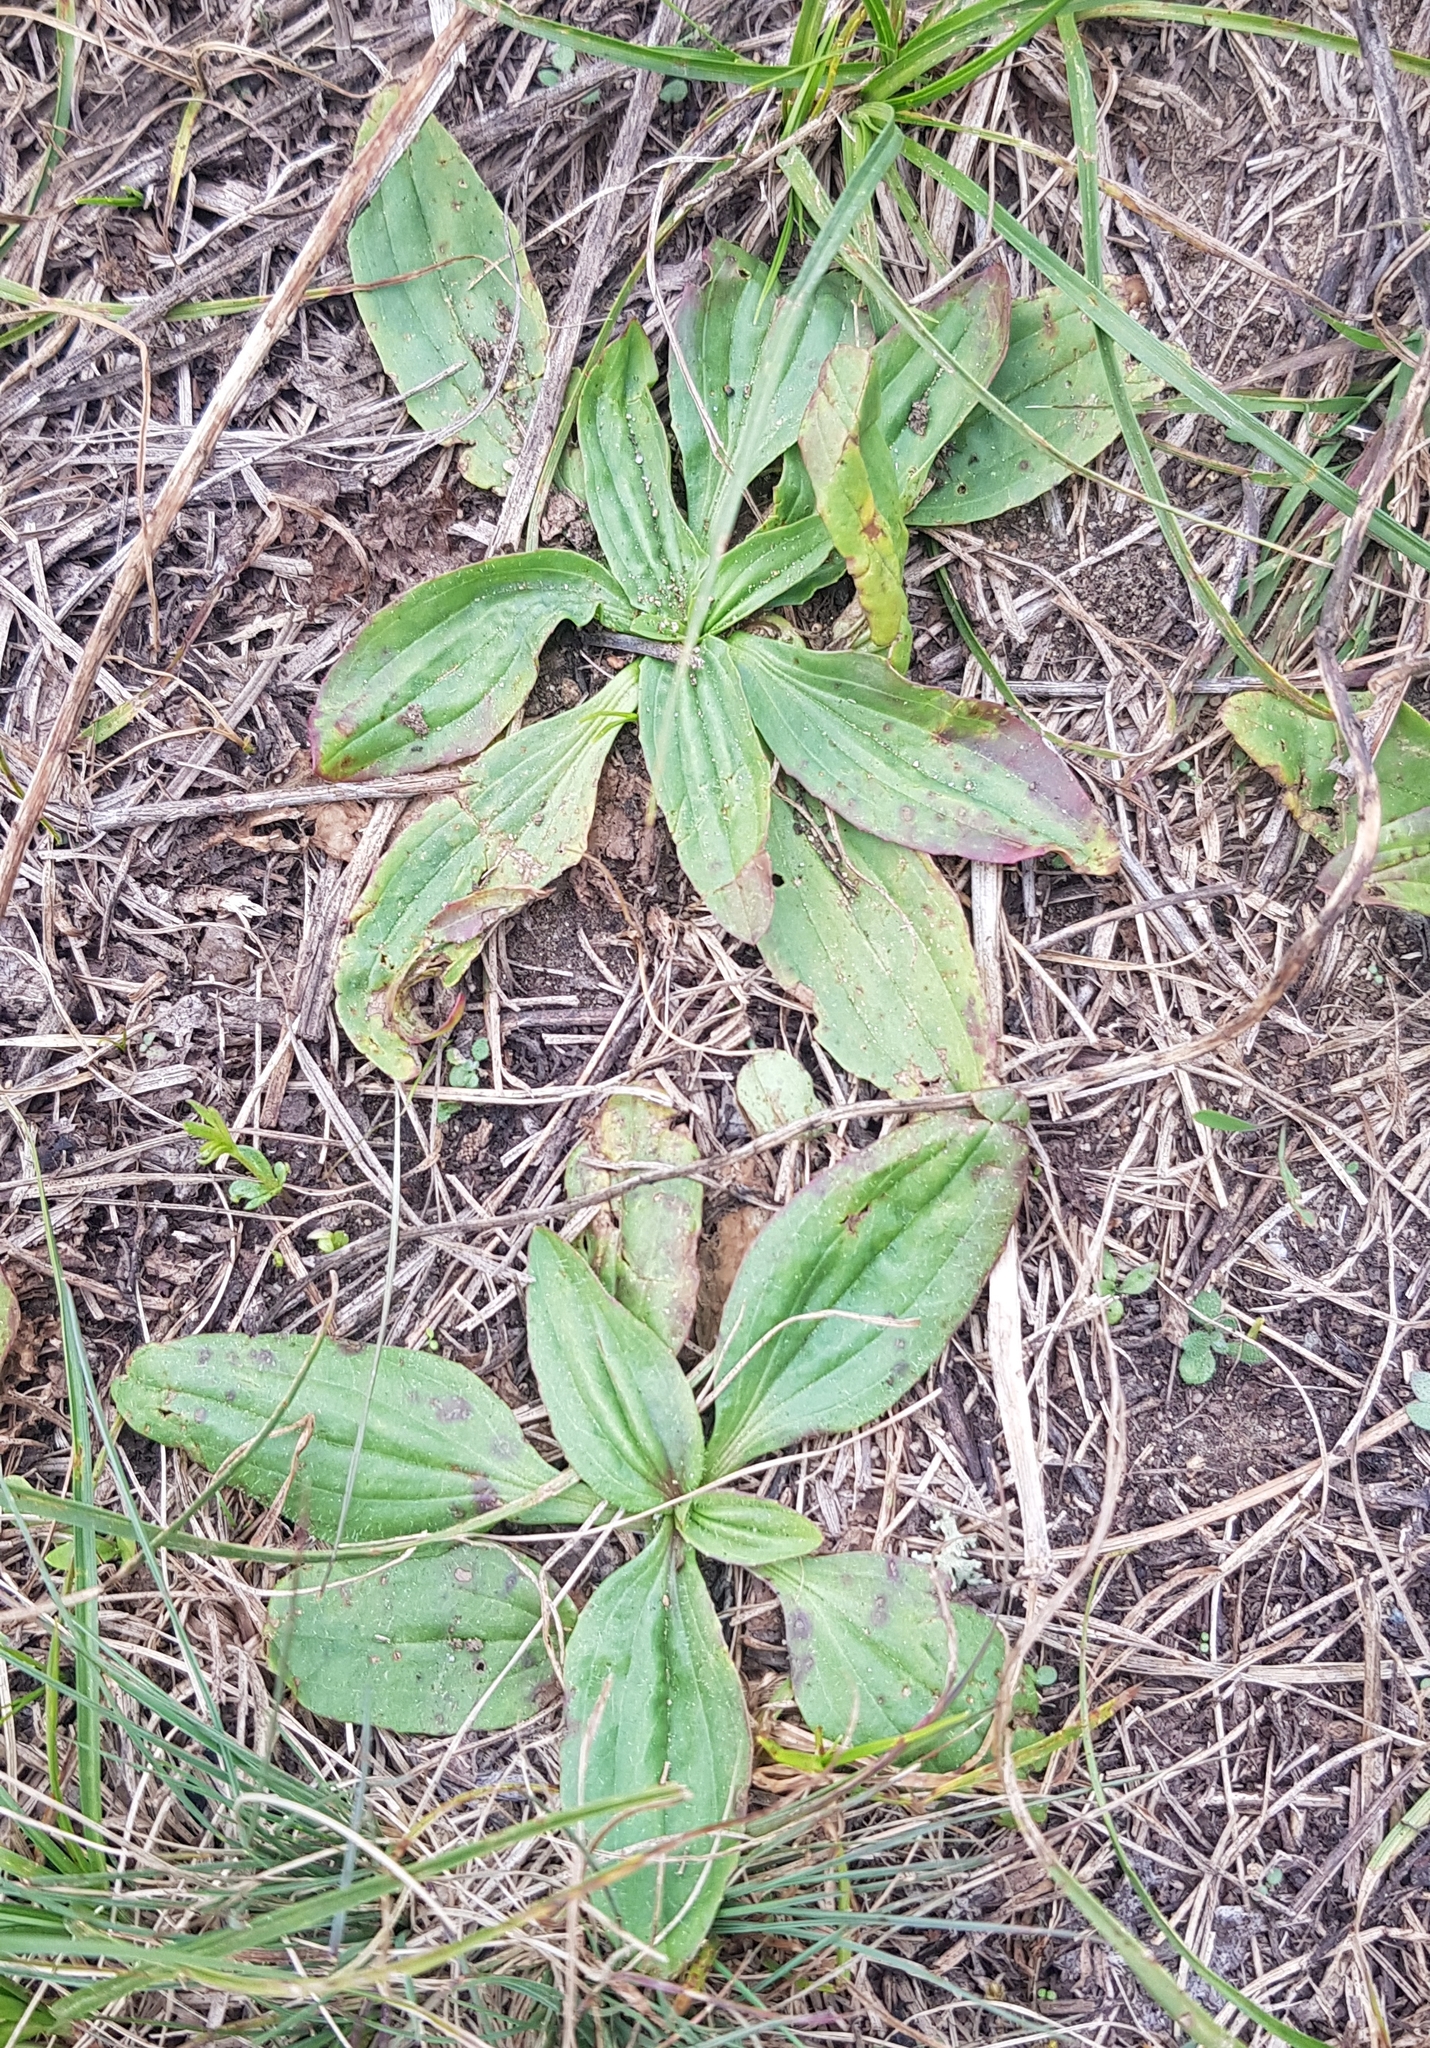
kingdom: Plantae
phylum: Tracheophyta
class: Magnoliopsida
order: Lamiales
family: Plantaginaceae
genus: Plantago
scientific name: Plantago depressa
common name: Depressed plantain
